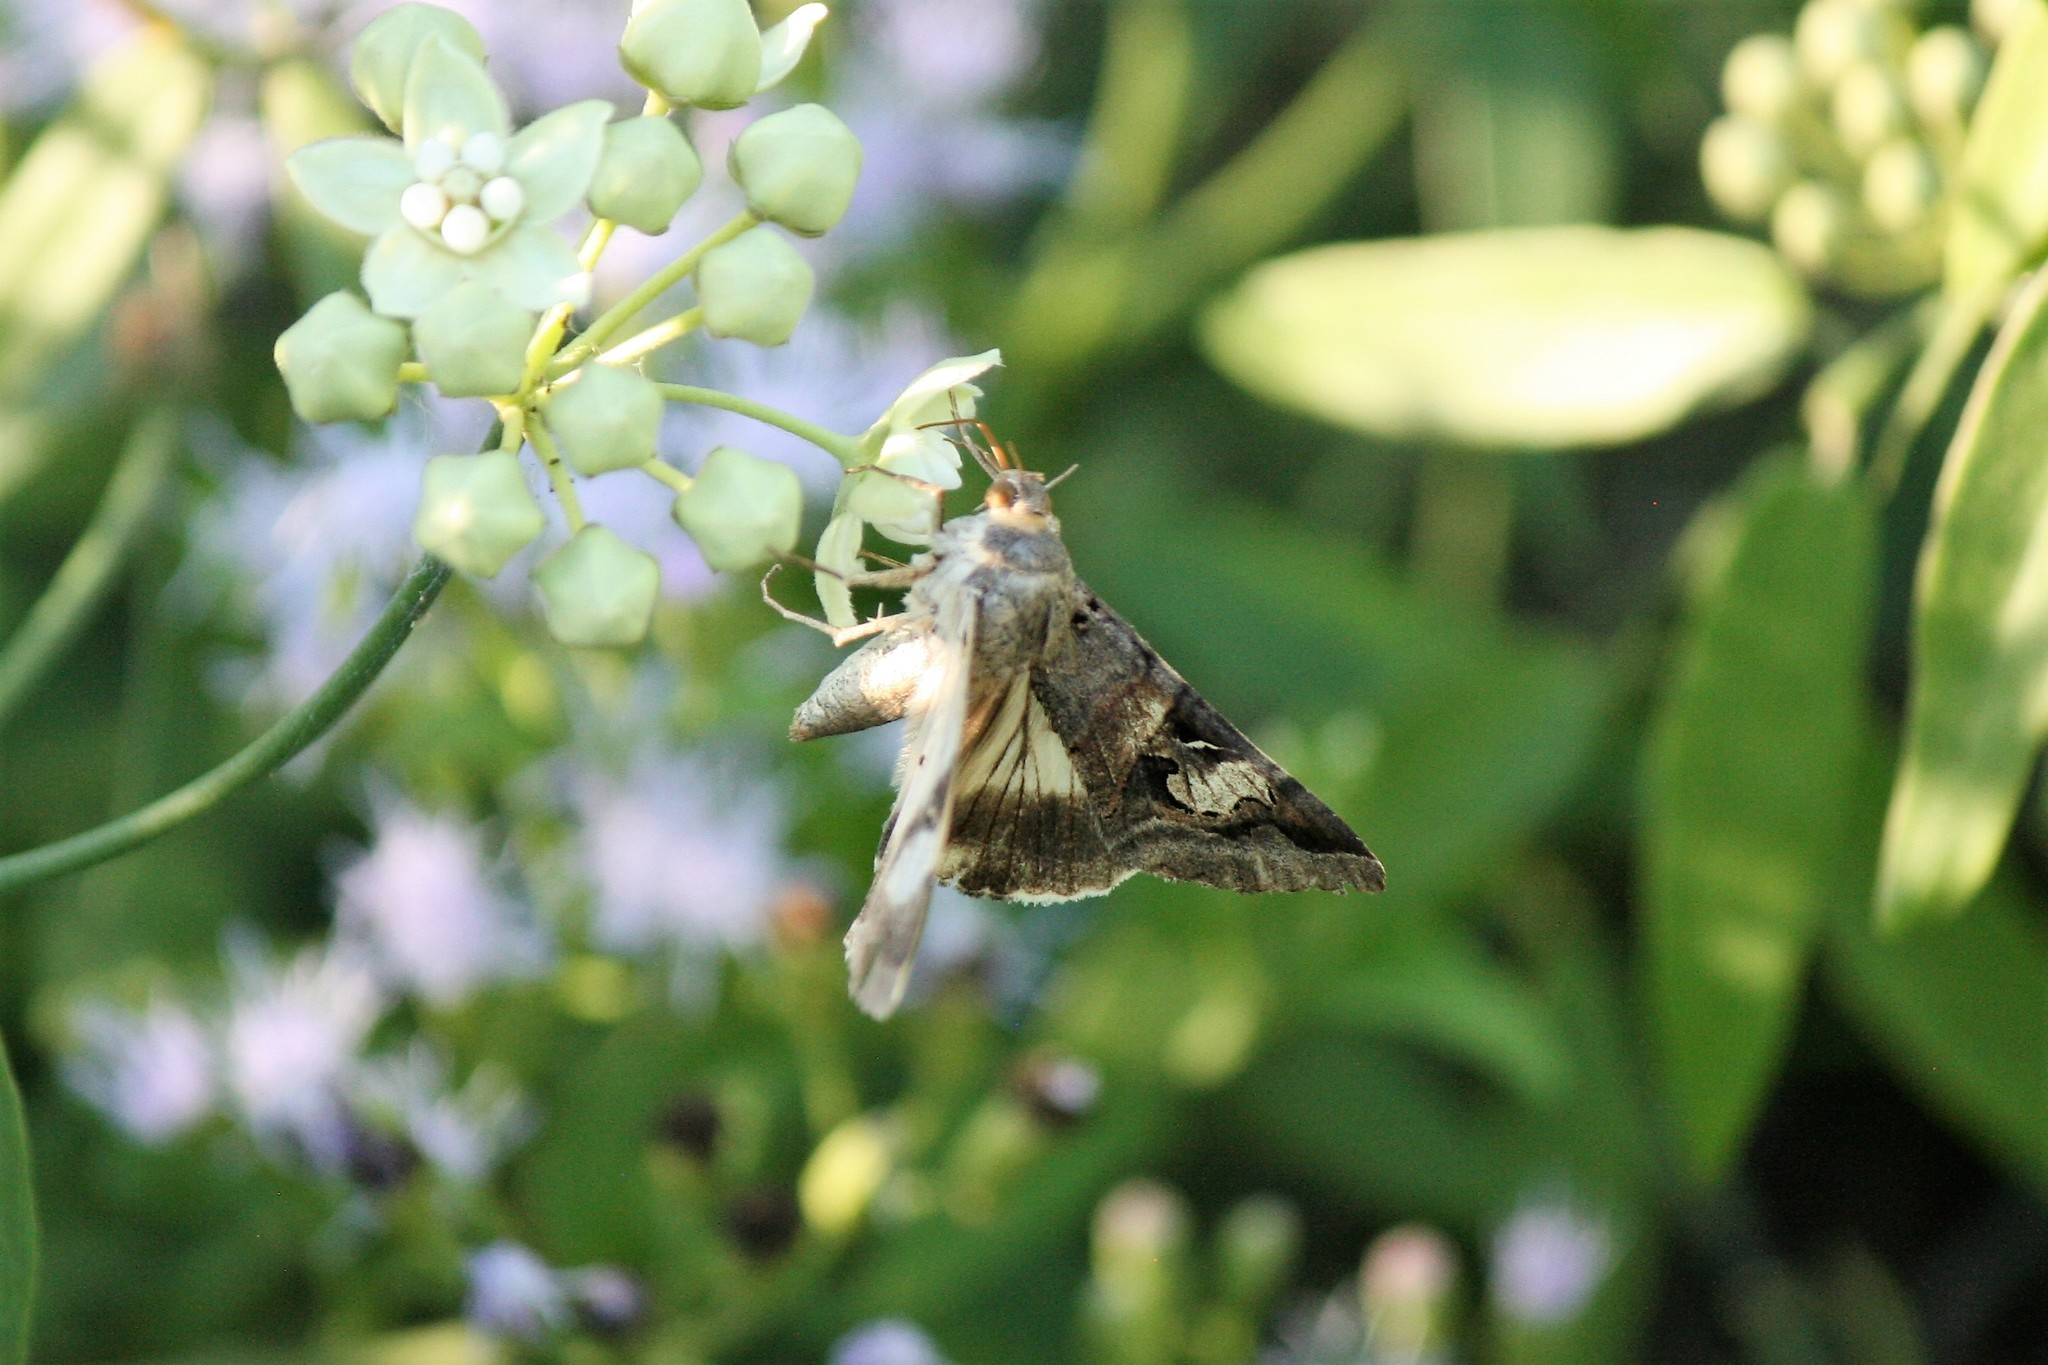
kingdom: Animalia
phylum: Arthropoda
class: Insecta
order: Lepidoptera
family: Erebidae
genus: Melipotis
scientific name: Melipotis indomita
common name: Moth
